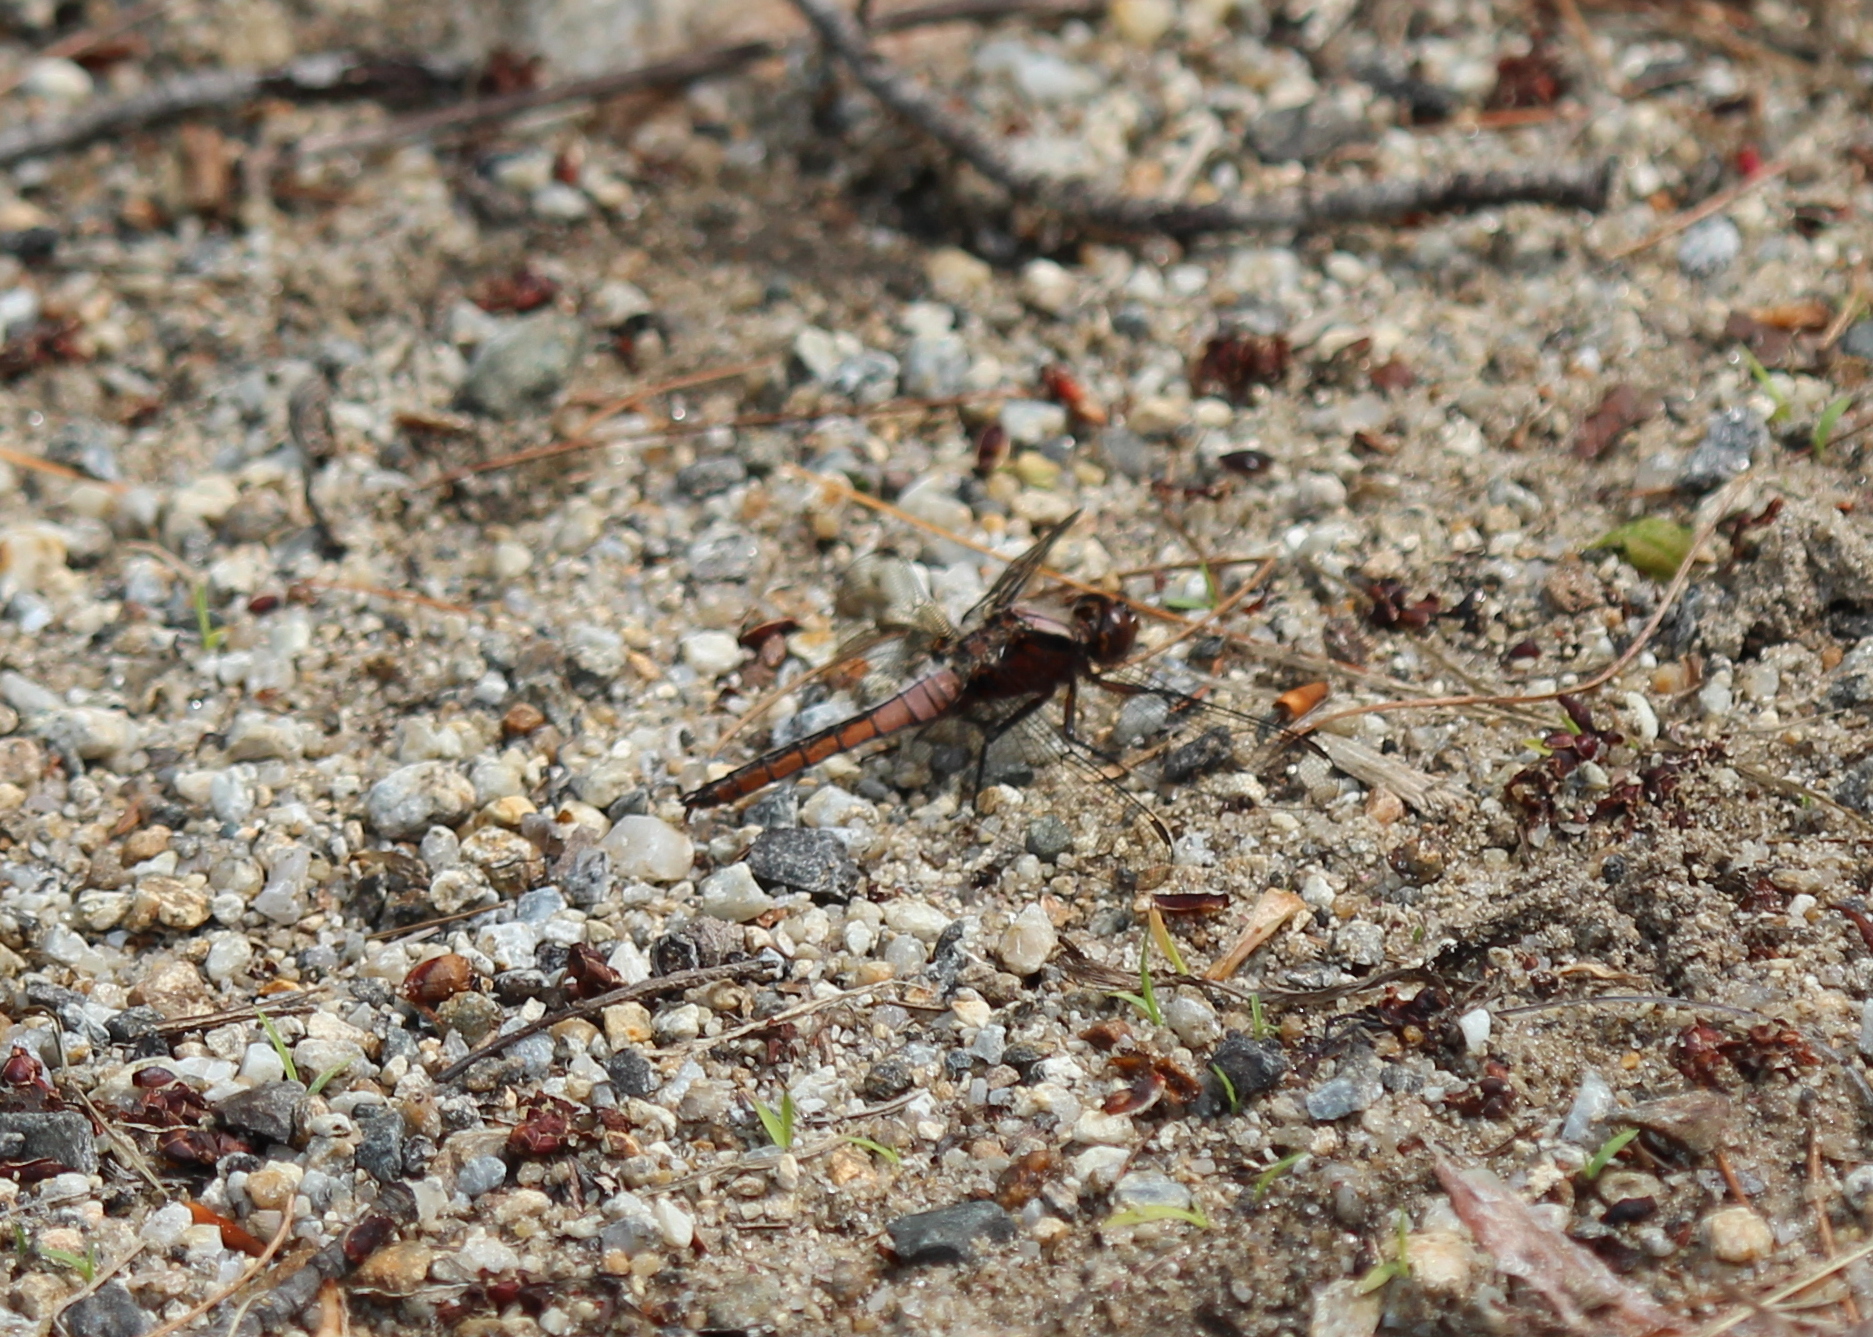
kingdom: Animalia
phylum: Arthropoda
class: Insecta
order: Odonata
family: Libellulidae
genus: Ladona
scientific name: Ladona julia
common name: Chalk-fronted corporal
